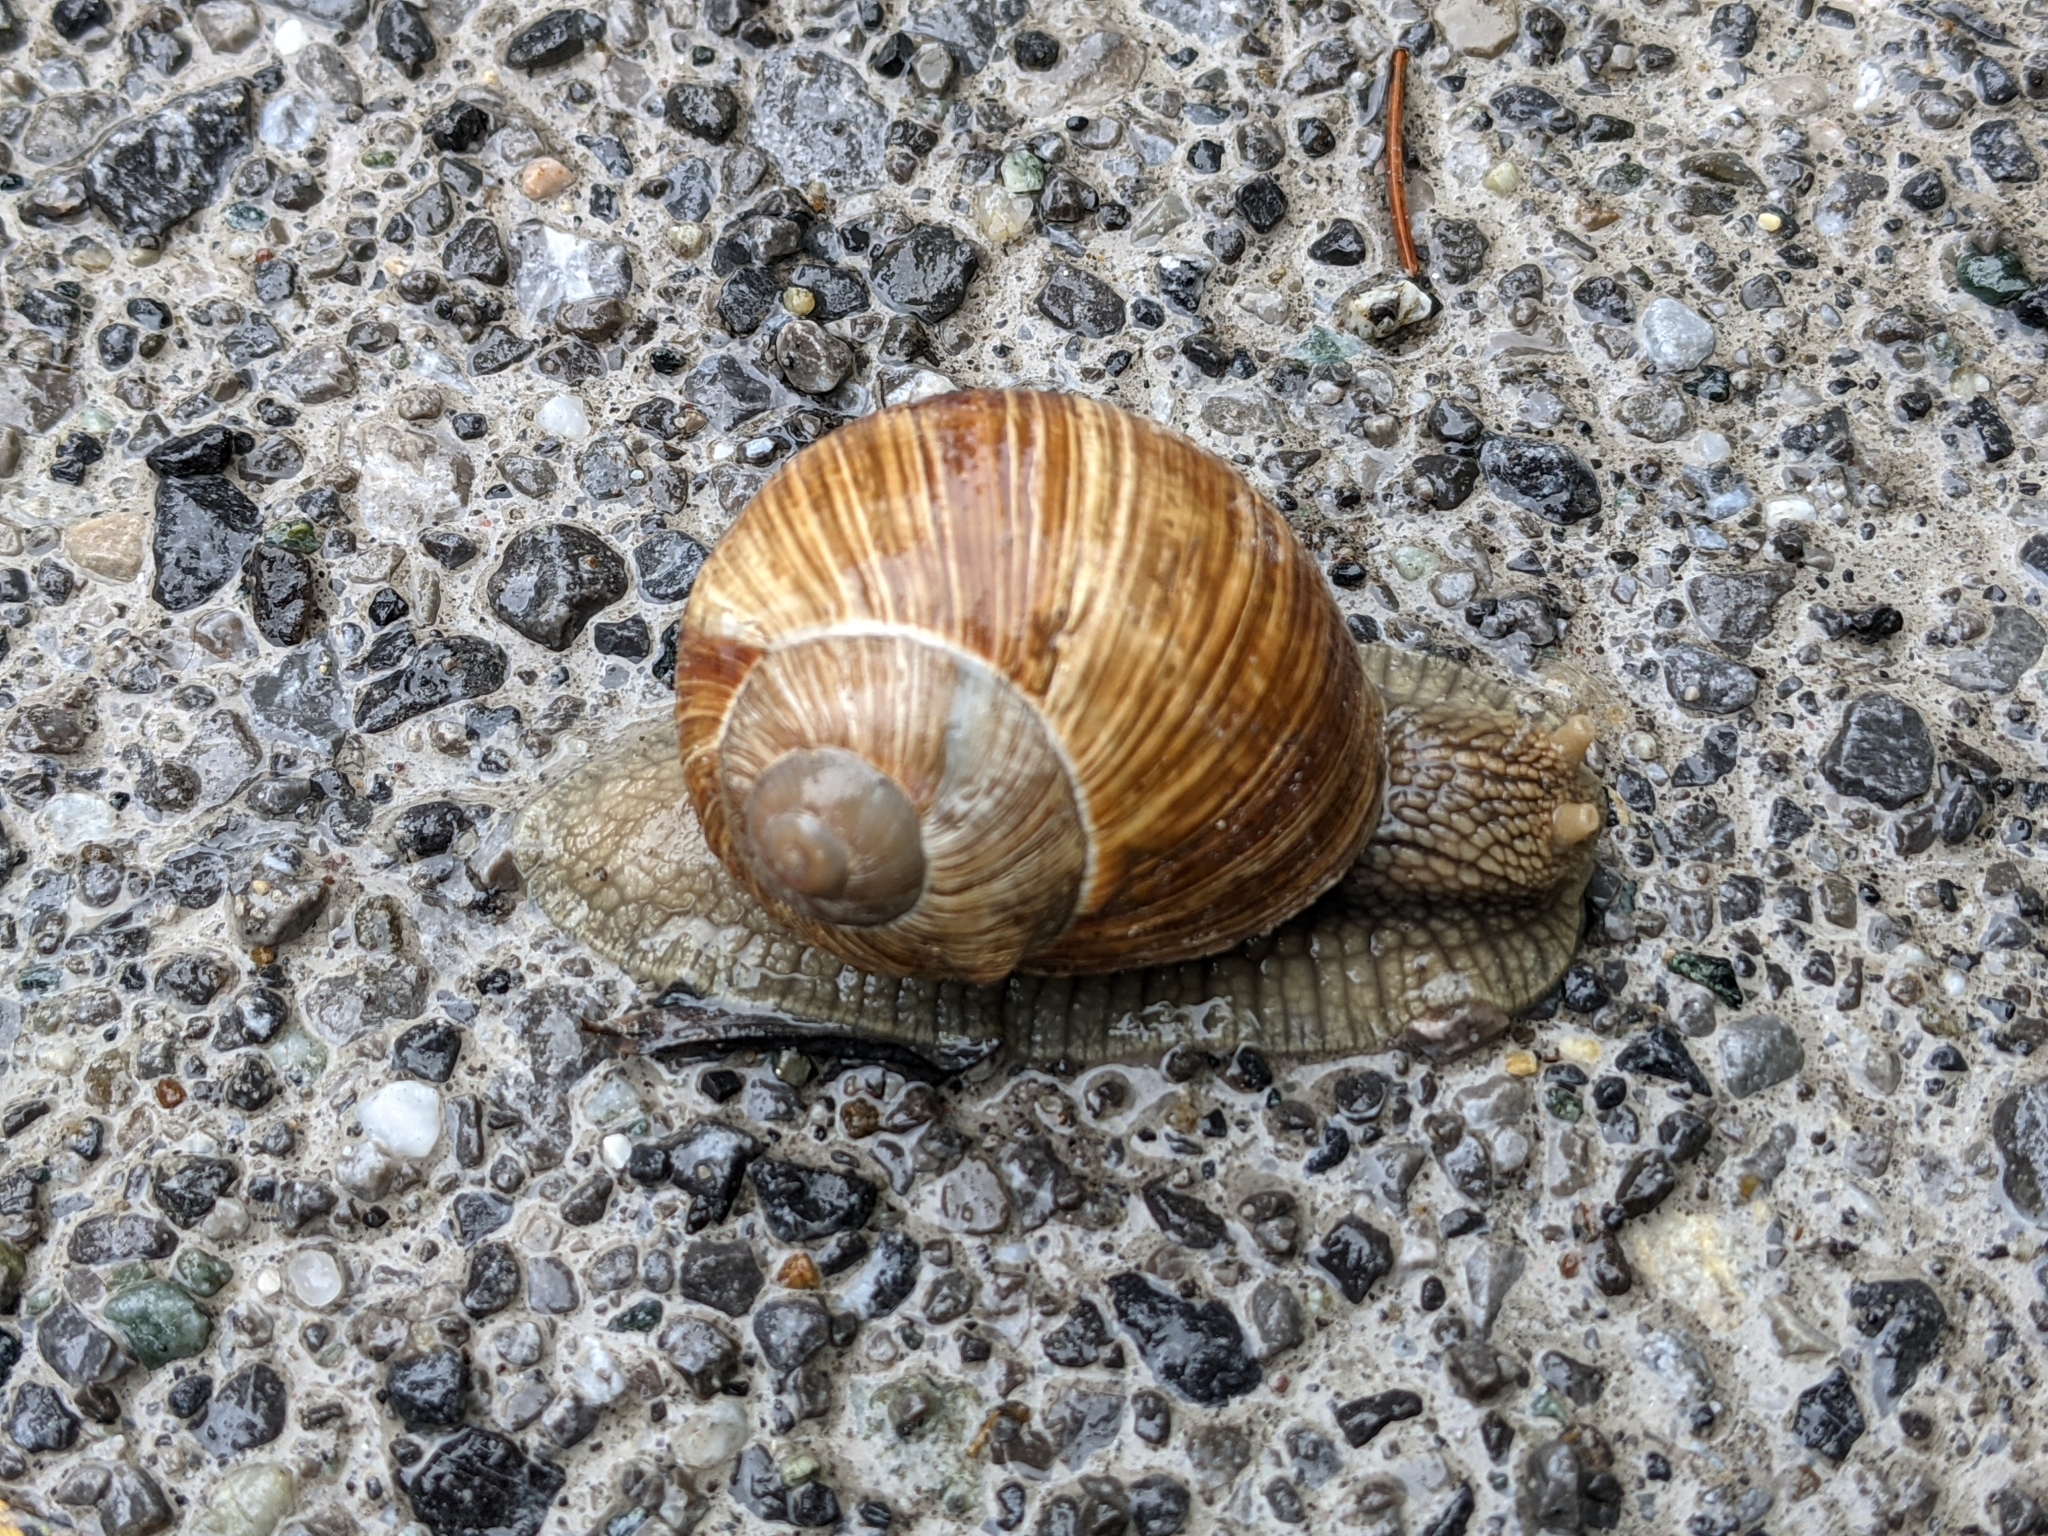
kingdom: Animalia
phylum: Mollusca
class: Gastropoda
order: Stylommatophora
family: Helicidae
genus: Helix
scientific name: Helix pomatia
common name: Roman snail
